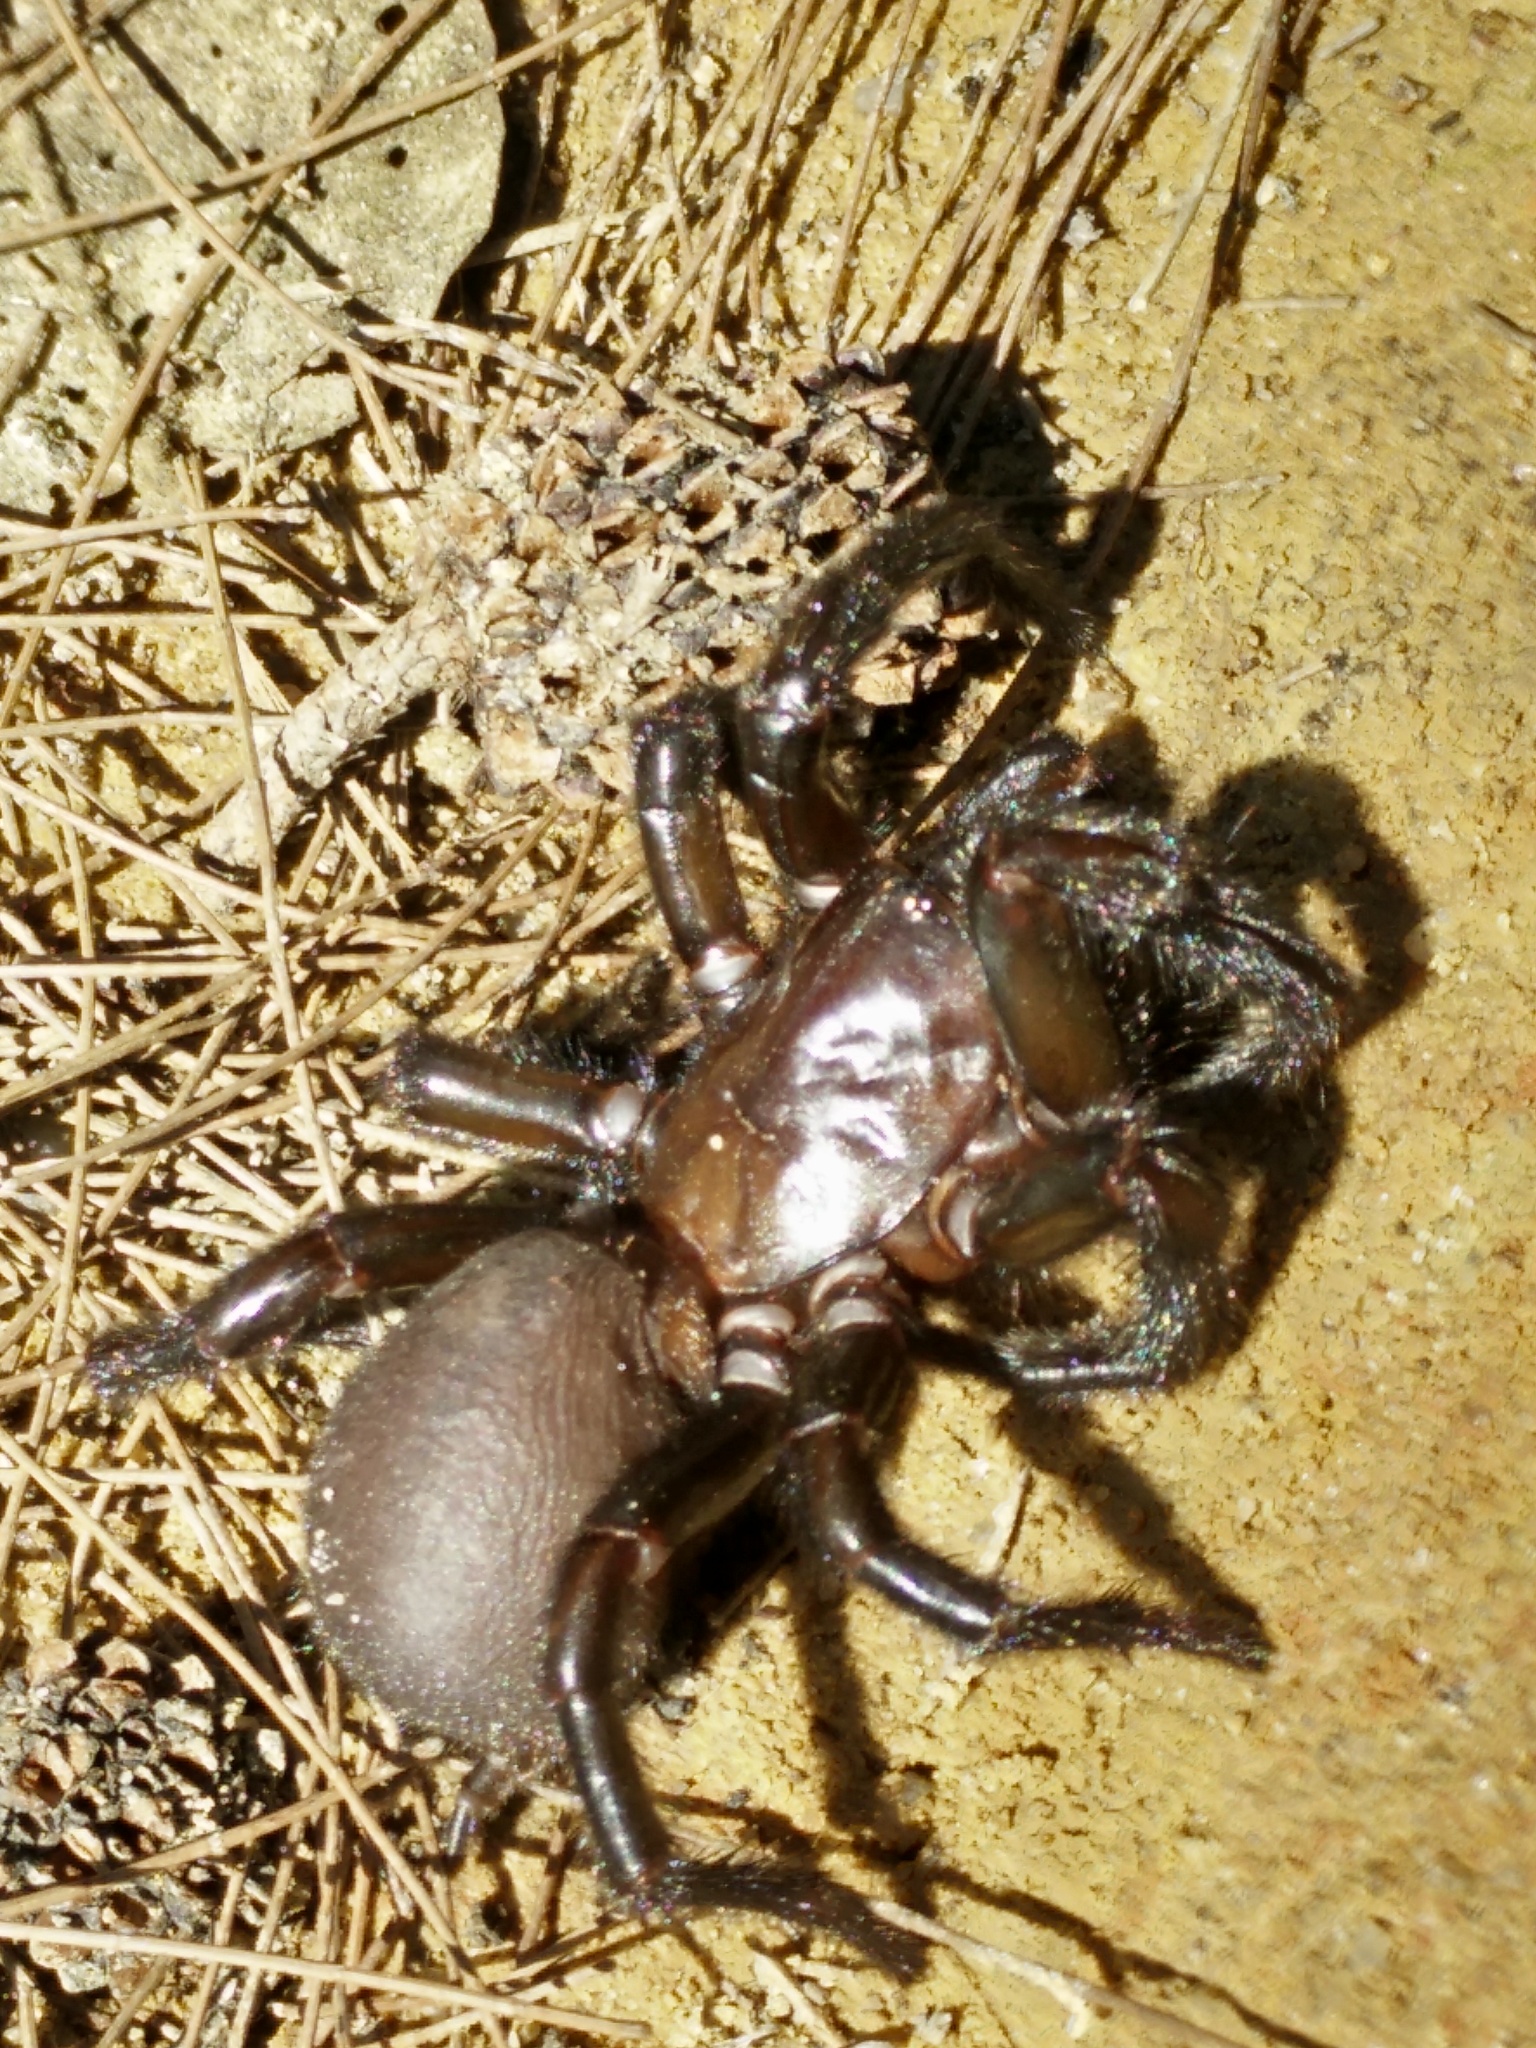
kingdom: Animalia
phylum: Arthropoda
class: Arachnida
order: Araneae
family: Atracidae
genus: Atrax
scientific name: Atrax robustus
